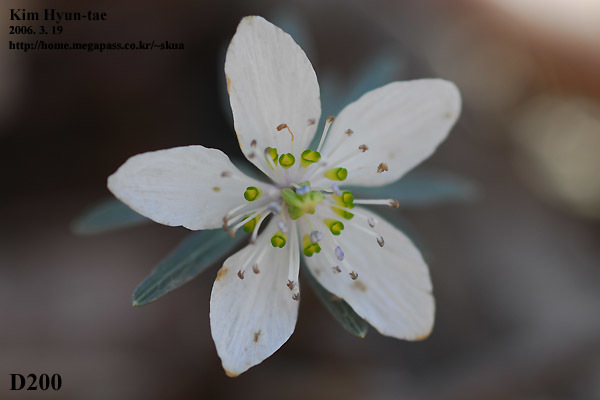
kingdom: Plantae
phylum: Tracheophyta
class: Magnoliopsida
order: Ranunculales
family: Ranunculaceae
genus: Eranthis
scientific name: Eranthis pinnatifida
